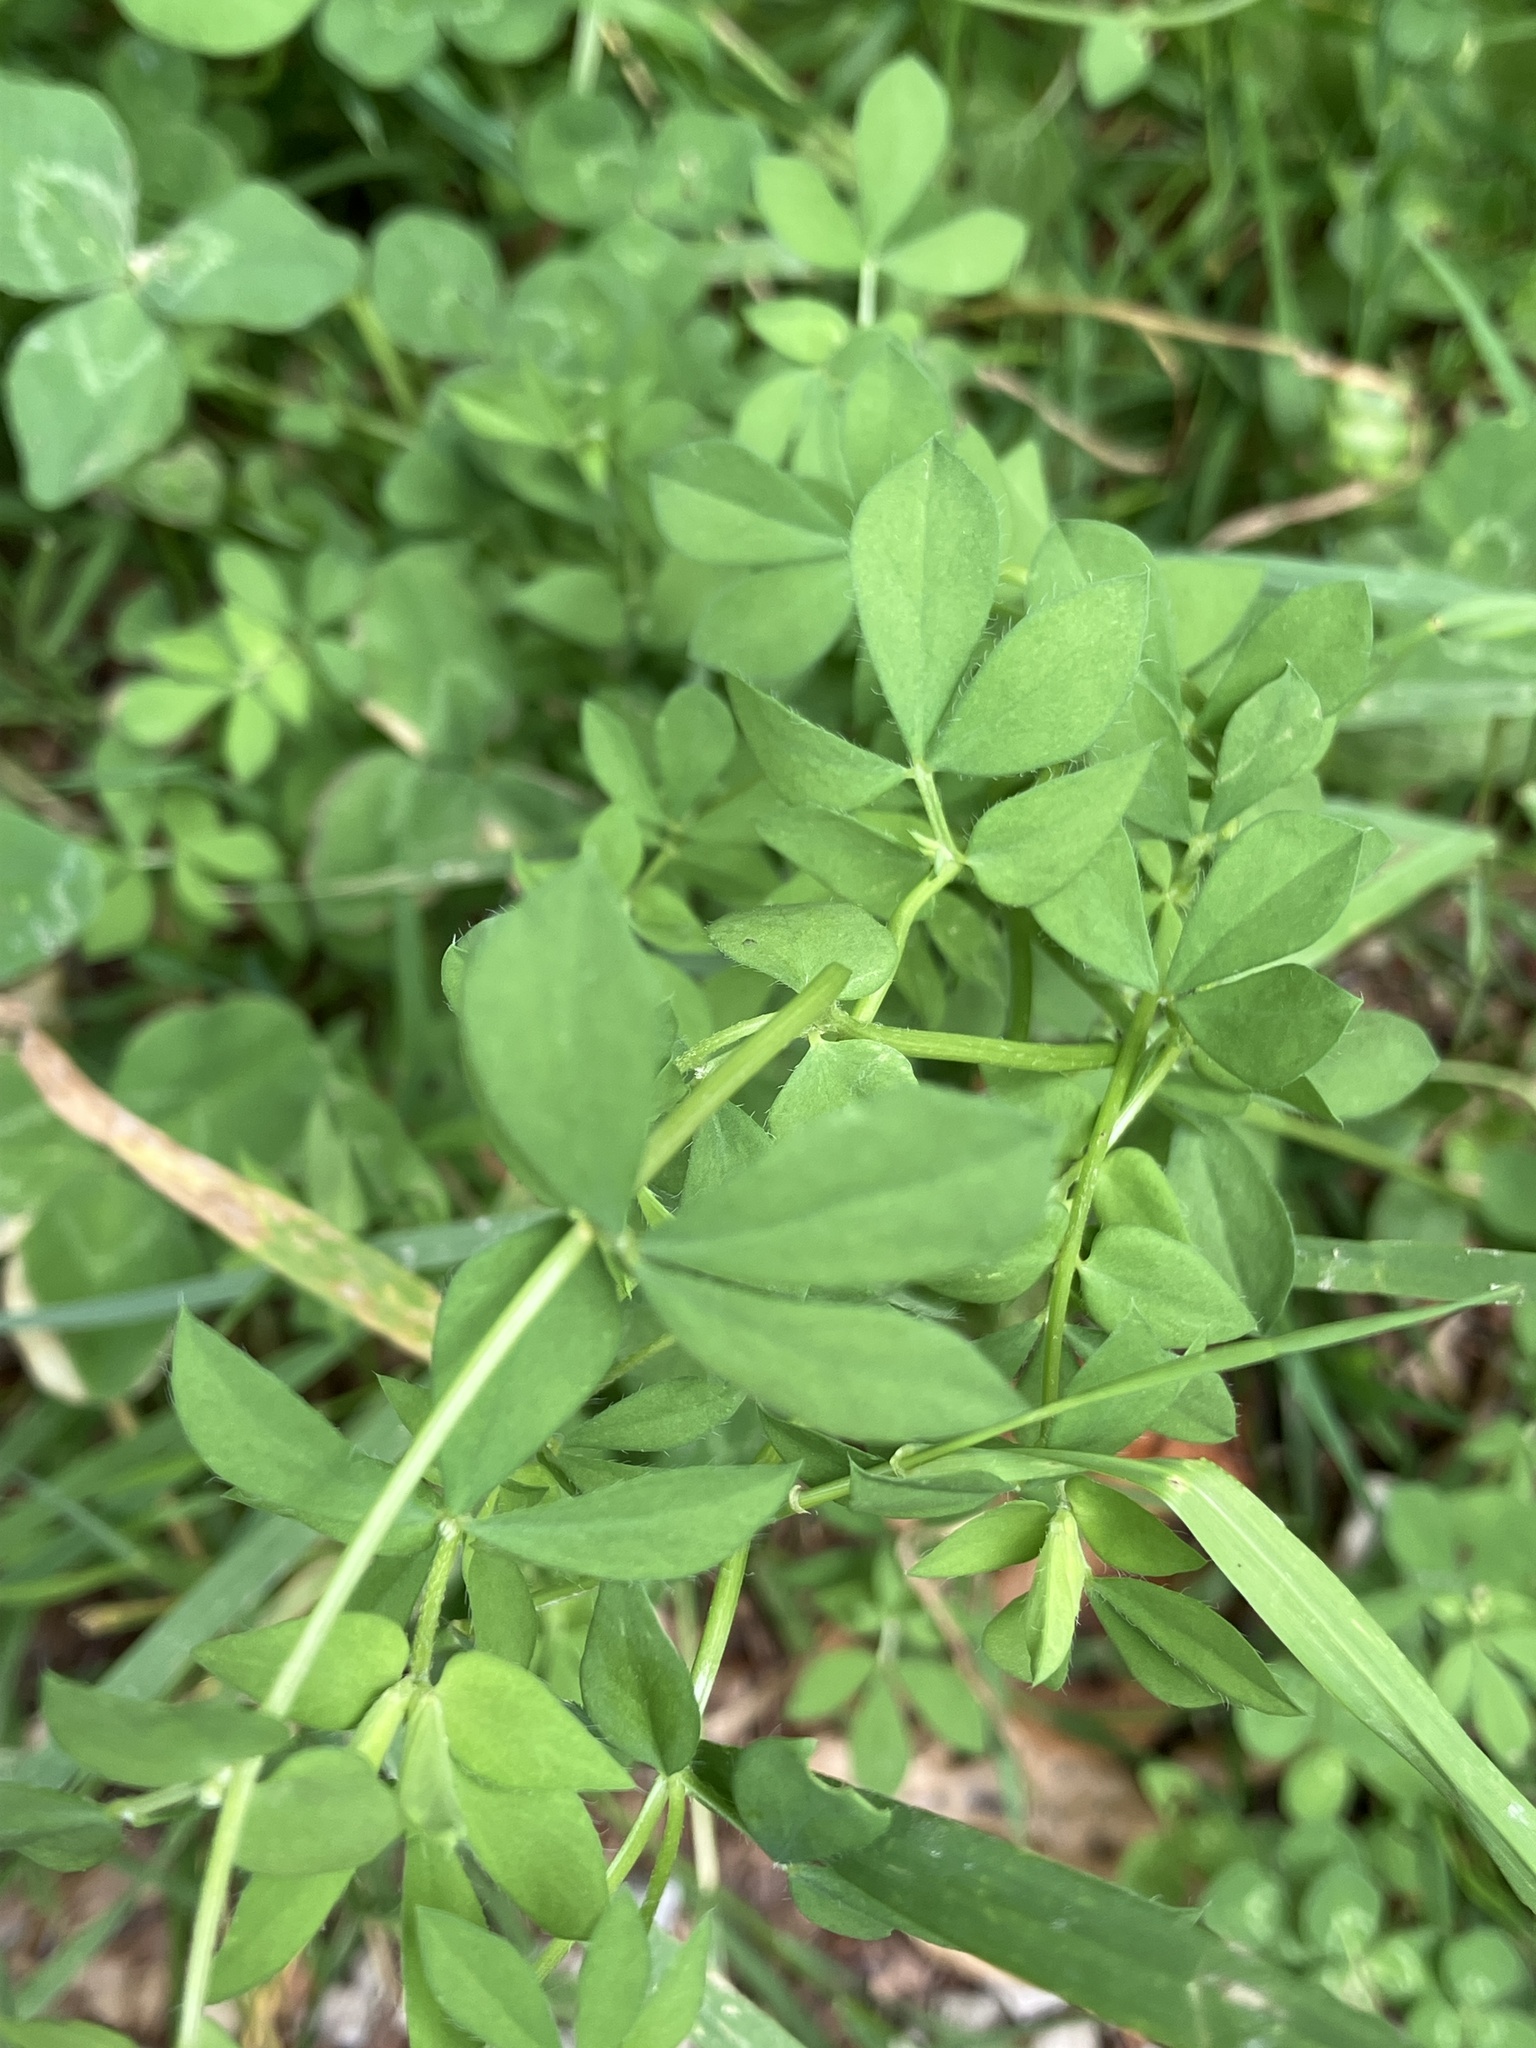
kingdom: Plantae
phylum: Tracheophyta
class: Magnoliopsida
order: Fabales
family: Fabaceae
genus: Lotus
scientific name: Lotus corniculatus
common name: Common bird's-foot-trefoil
